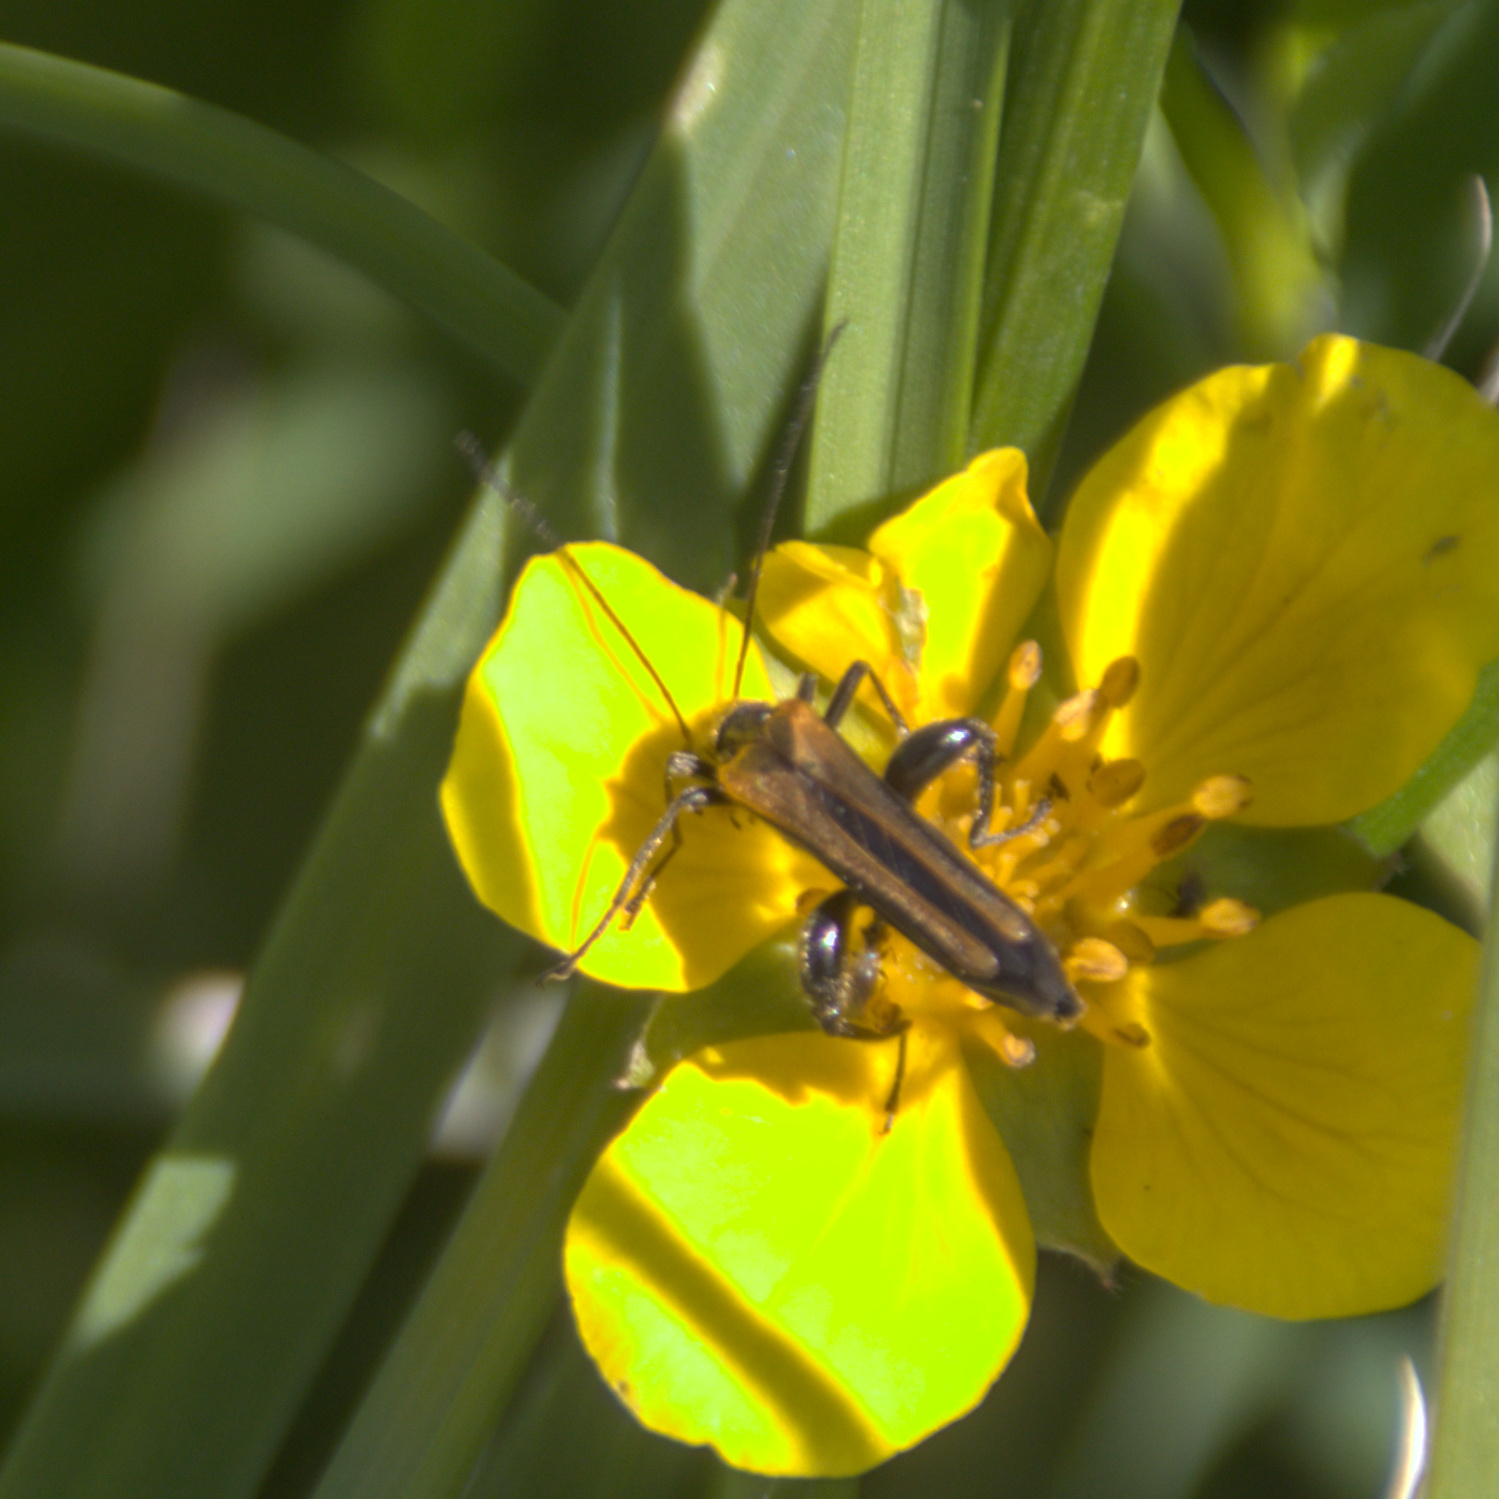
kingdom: Animalia
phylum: Arthropoda
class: Insecta
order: Coleoptera
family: Oedemeridae
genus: Oedemera
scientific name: Oedemera femorata
